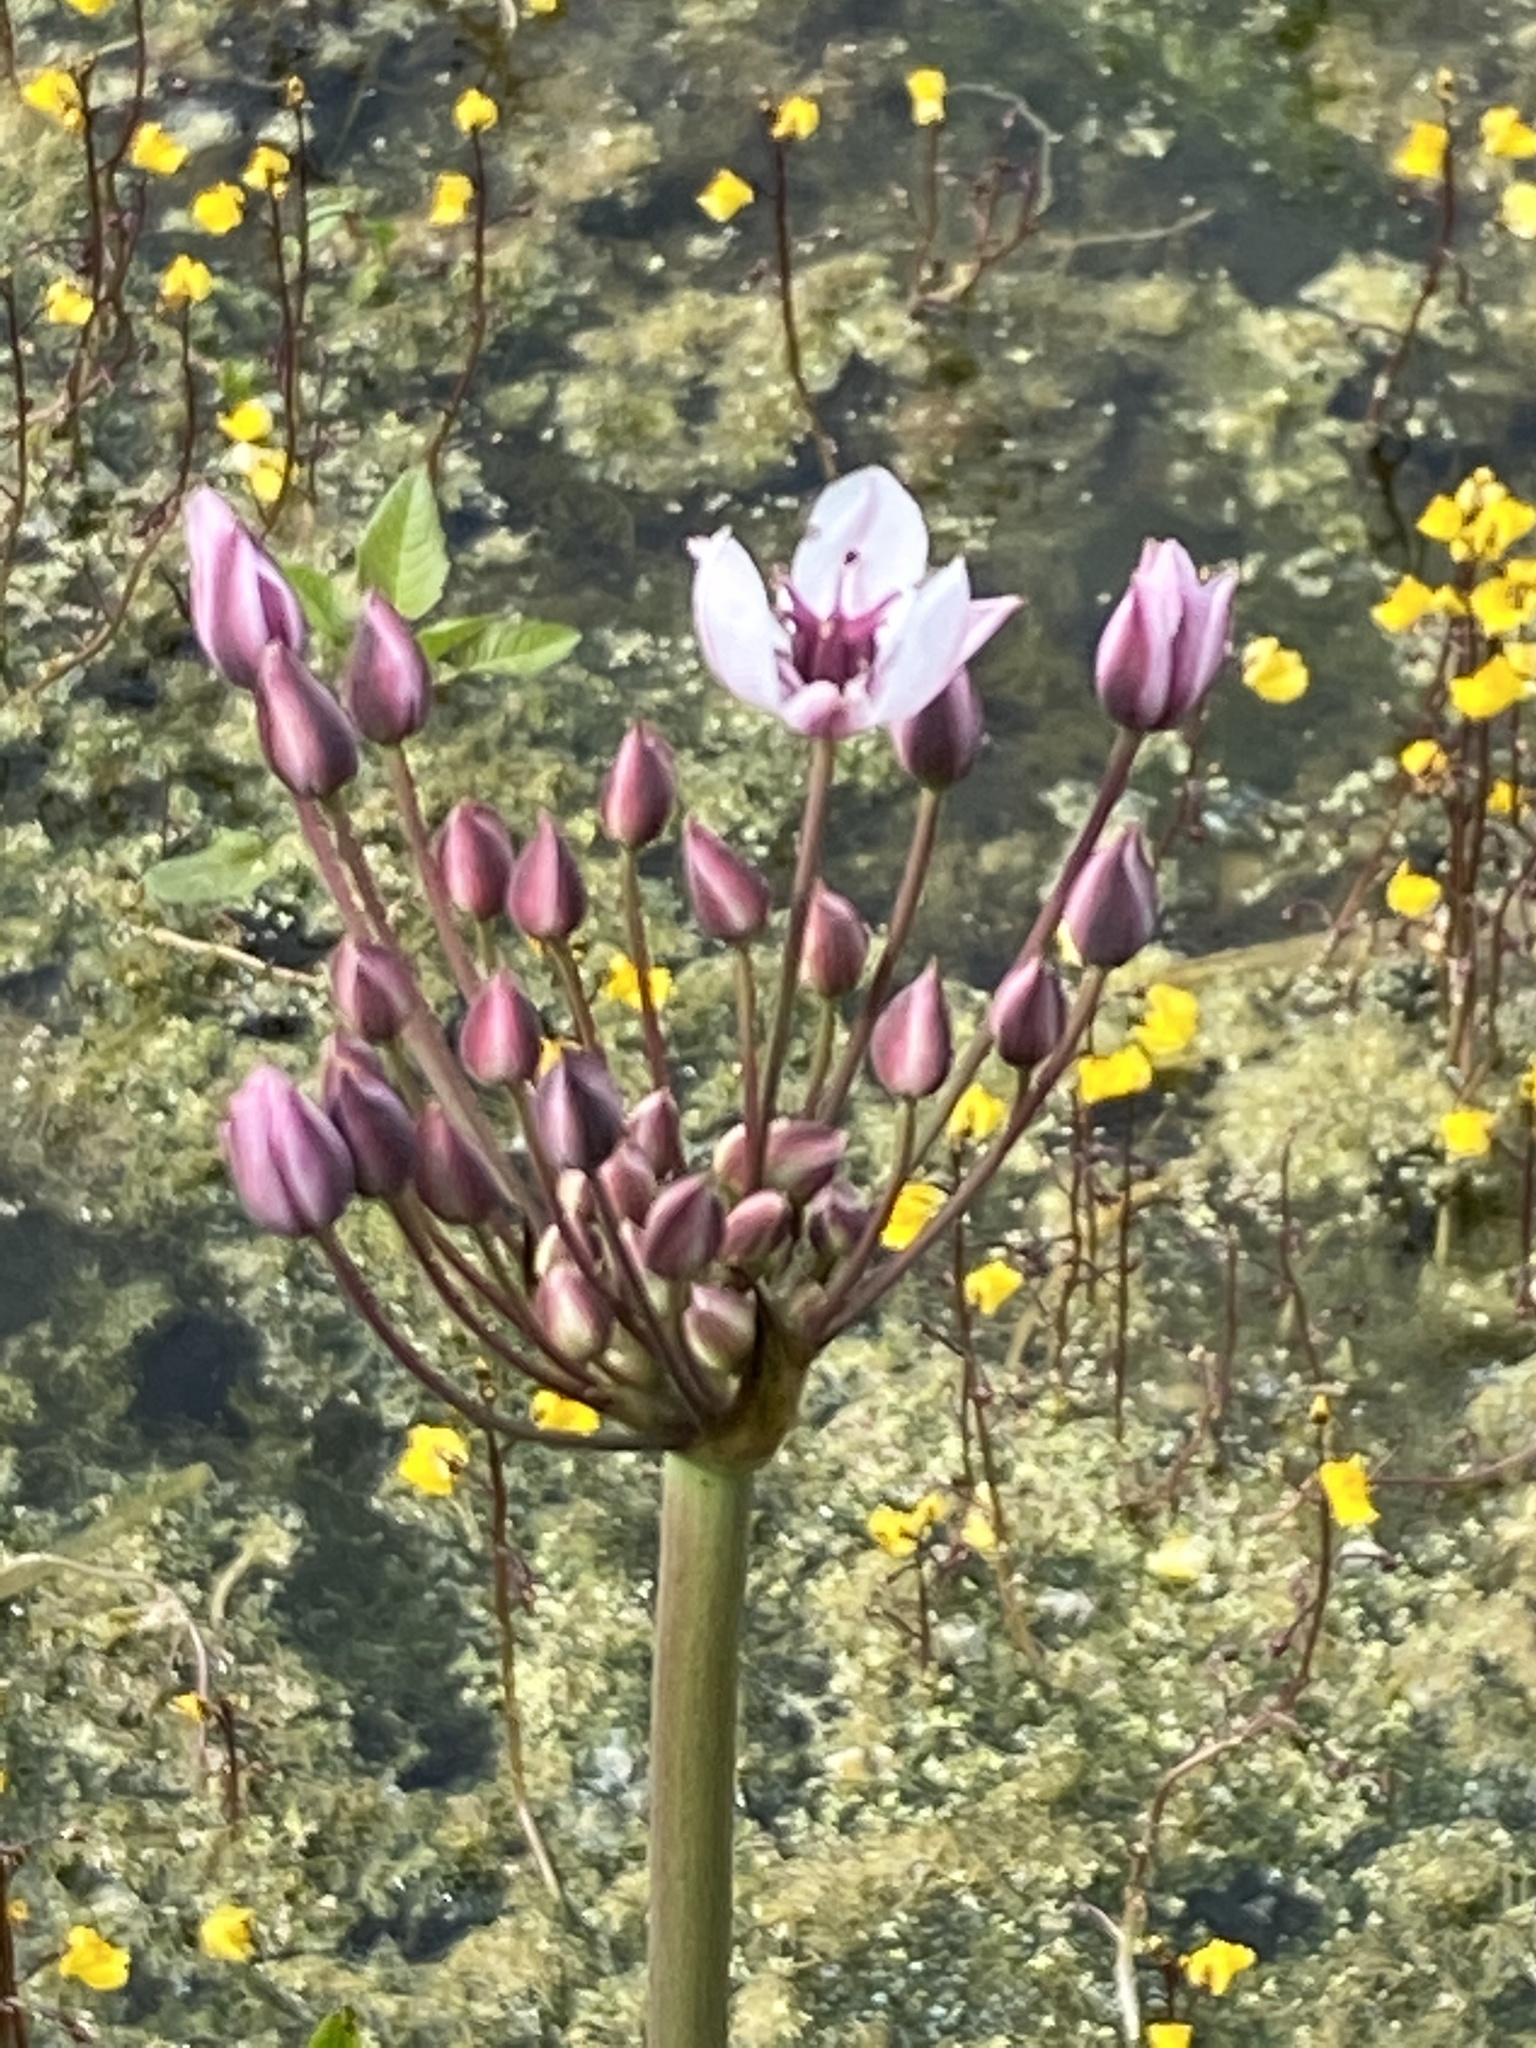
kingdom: Plantae
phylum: Tracheophyta
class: Liliopsida
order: Alismatales
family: Butomaceae
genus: Butomus
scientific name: Butomus umbellatus
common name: Flowering-rush
